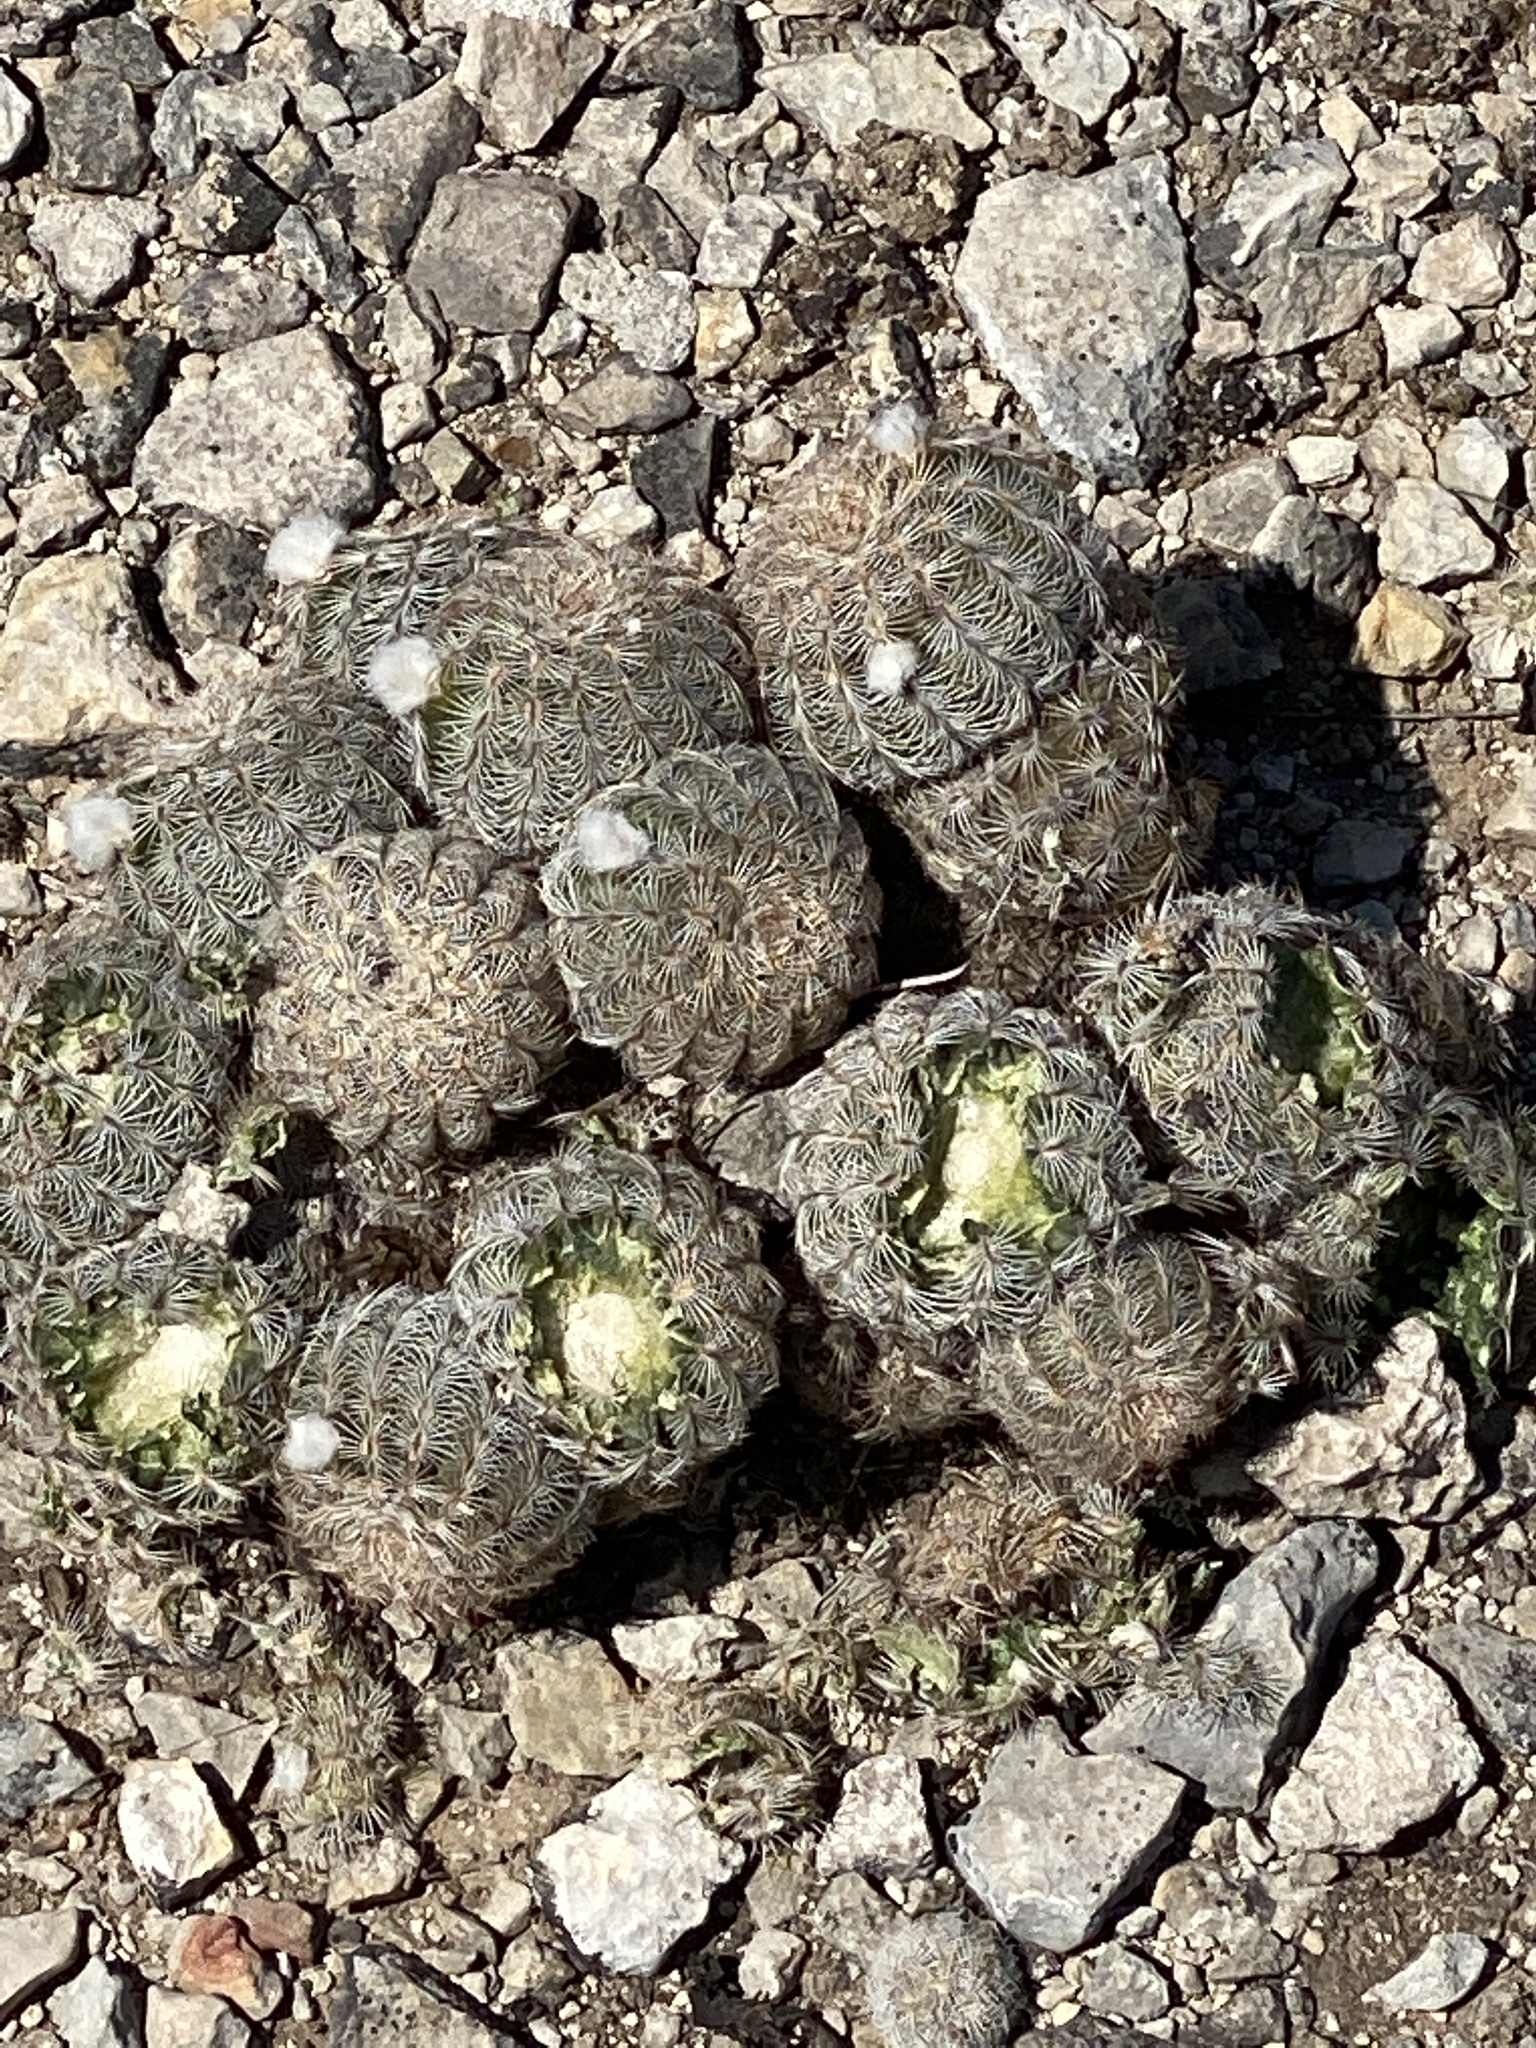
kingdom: Plantae
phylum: Tracheophyta
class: Magnoliopsida
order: Caryophyllales
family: Cactaceae
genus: Echinocereus
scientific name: Echinocereus reichenbachii
